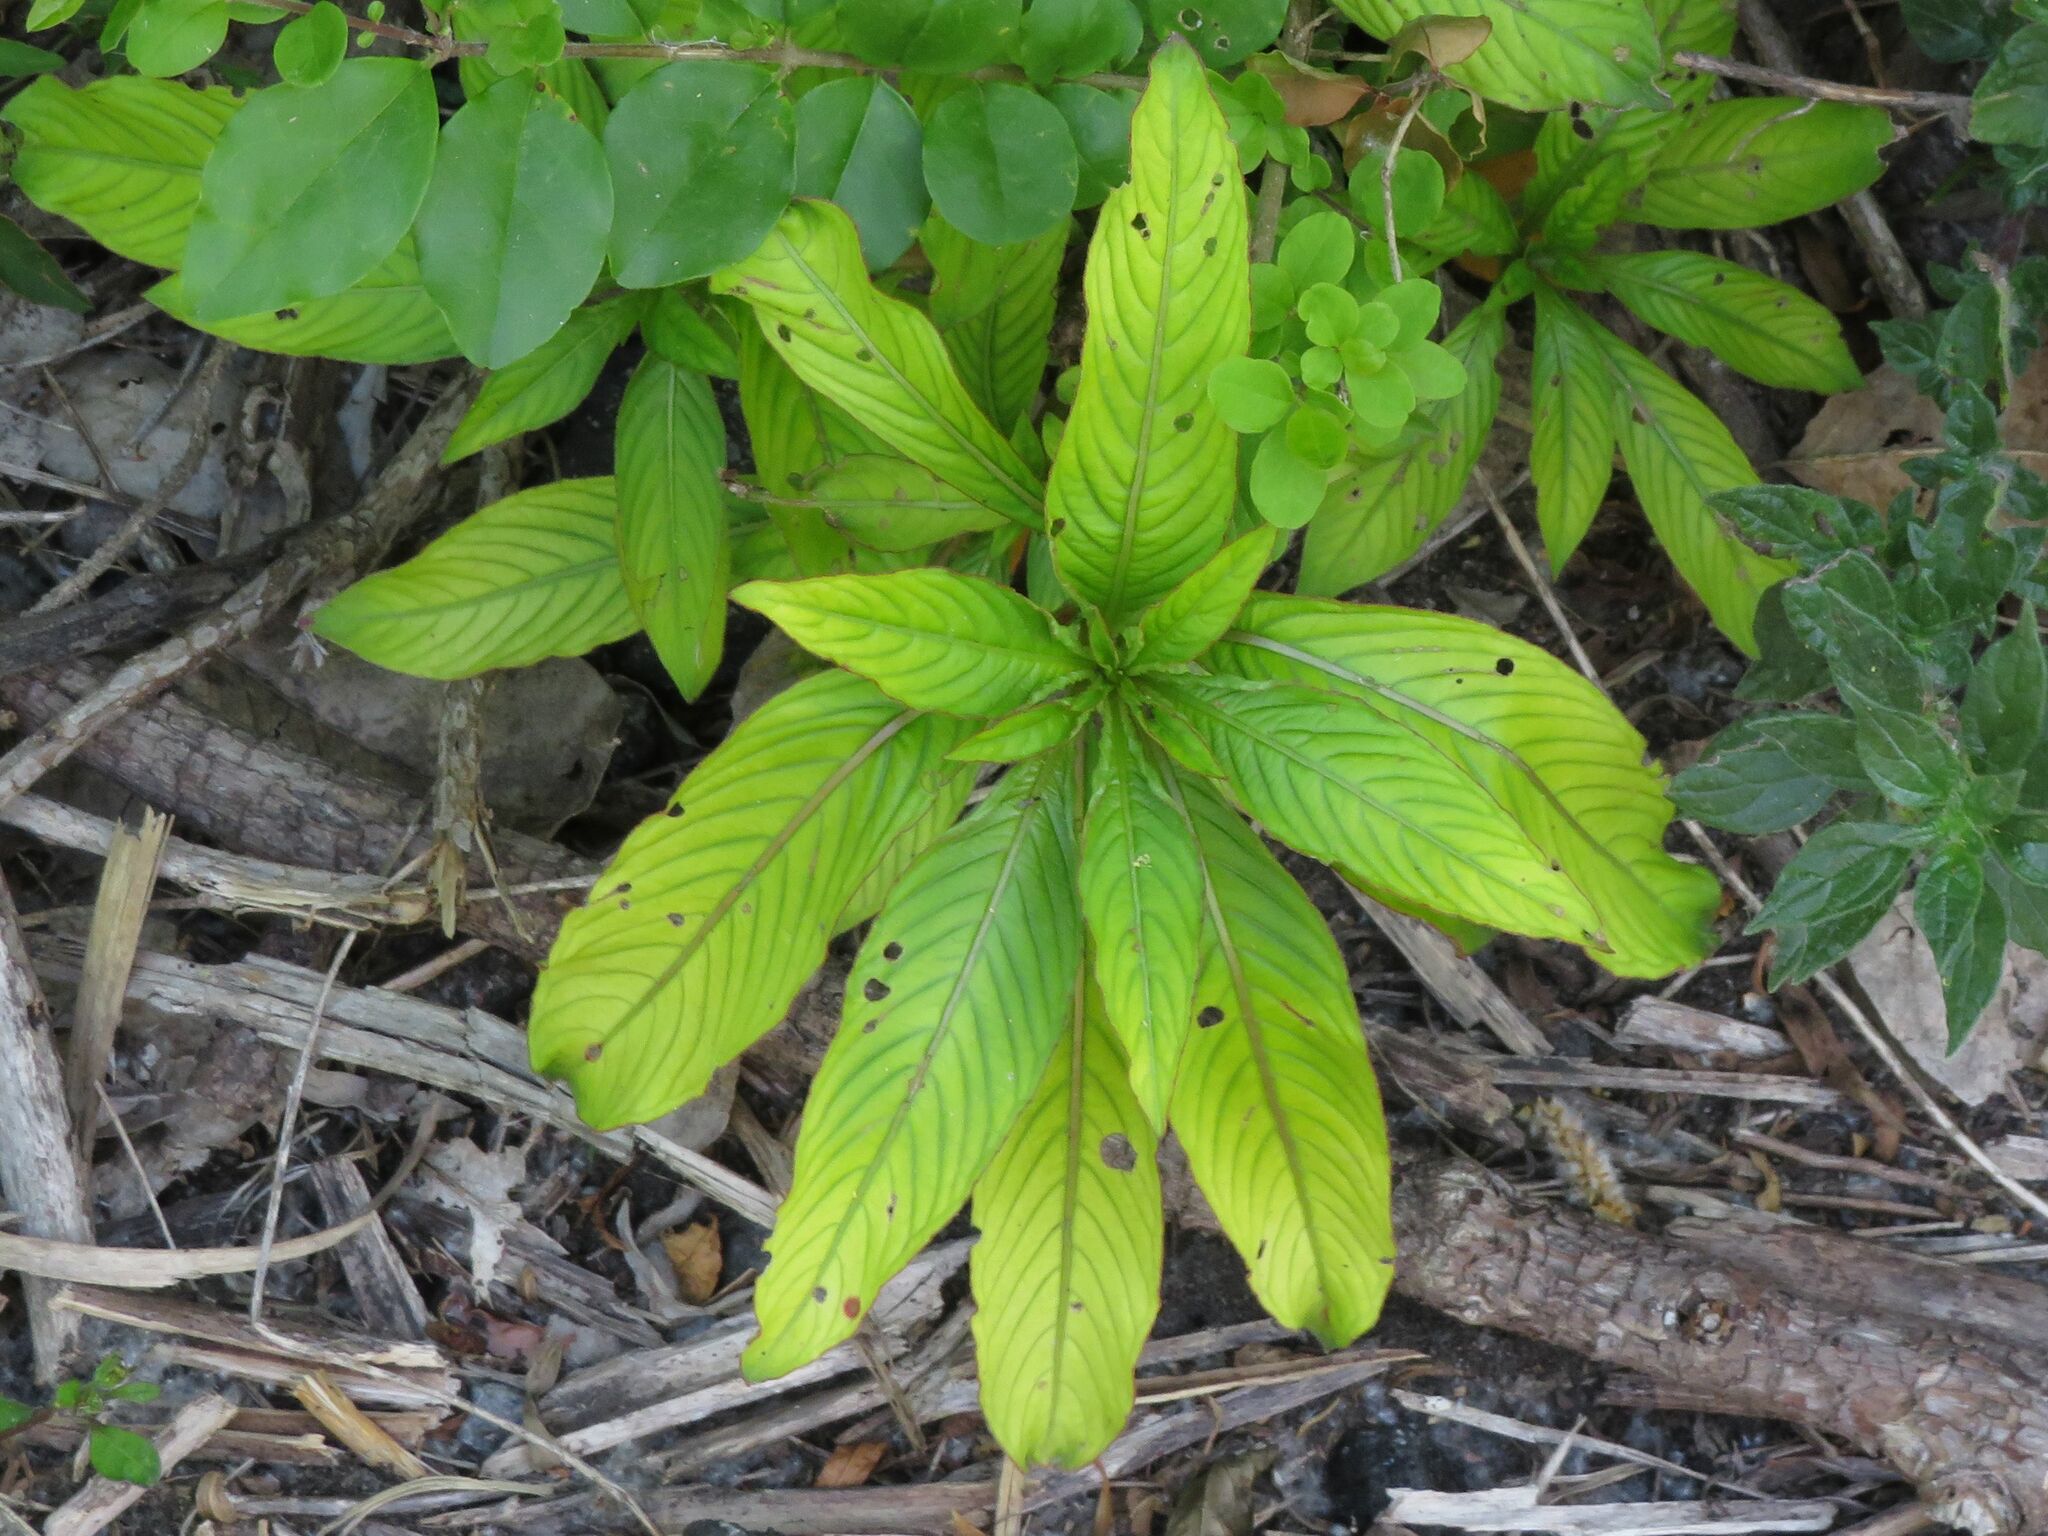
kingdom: Plantae
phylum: Tracheophyta
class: Magnoliopsida
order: Myrtales
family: Onagraceae
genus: Ludwigia
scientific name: Ludwigia elegans
